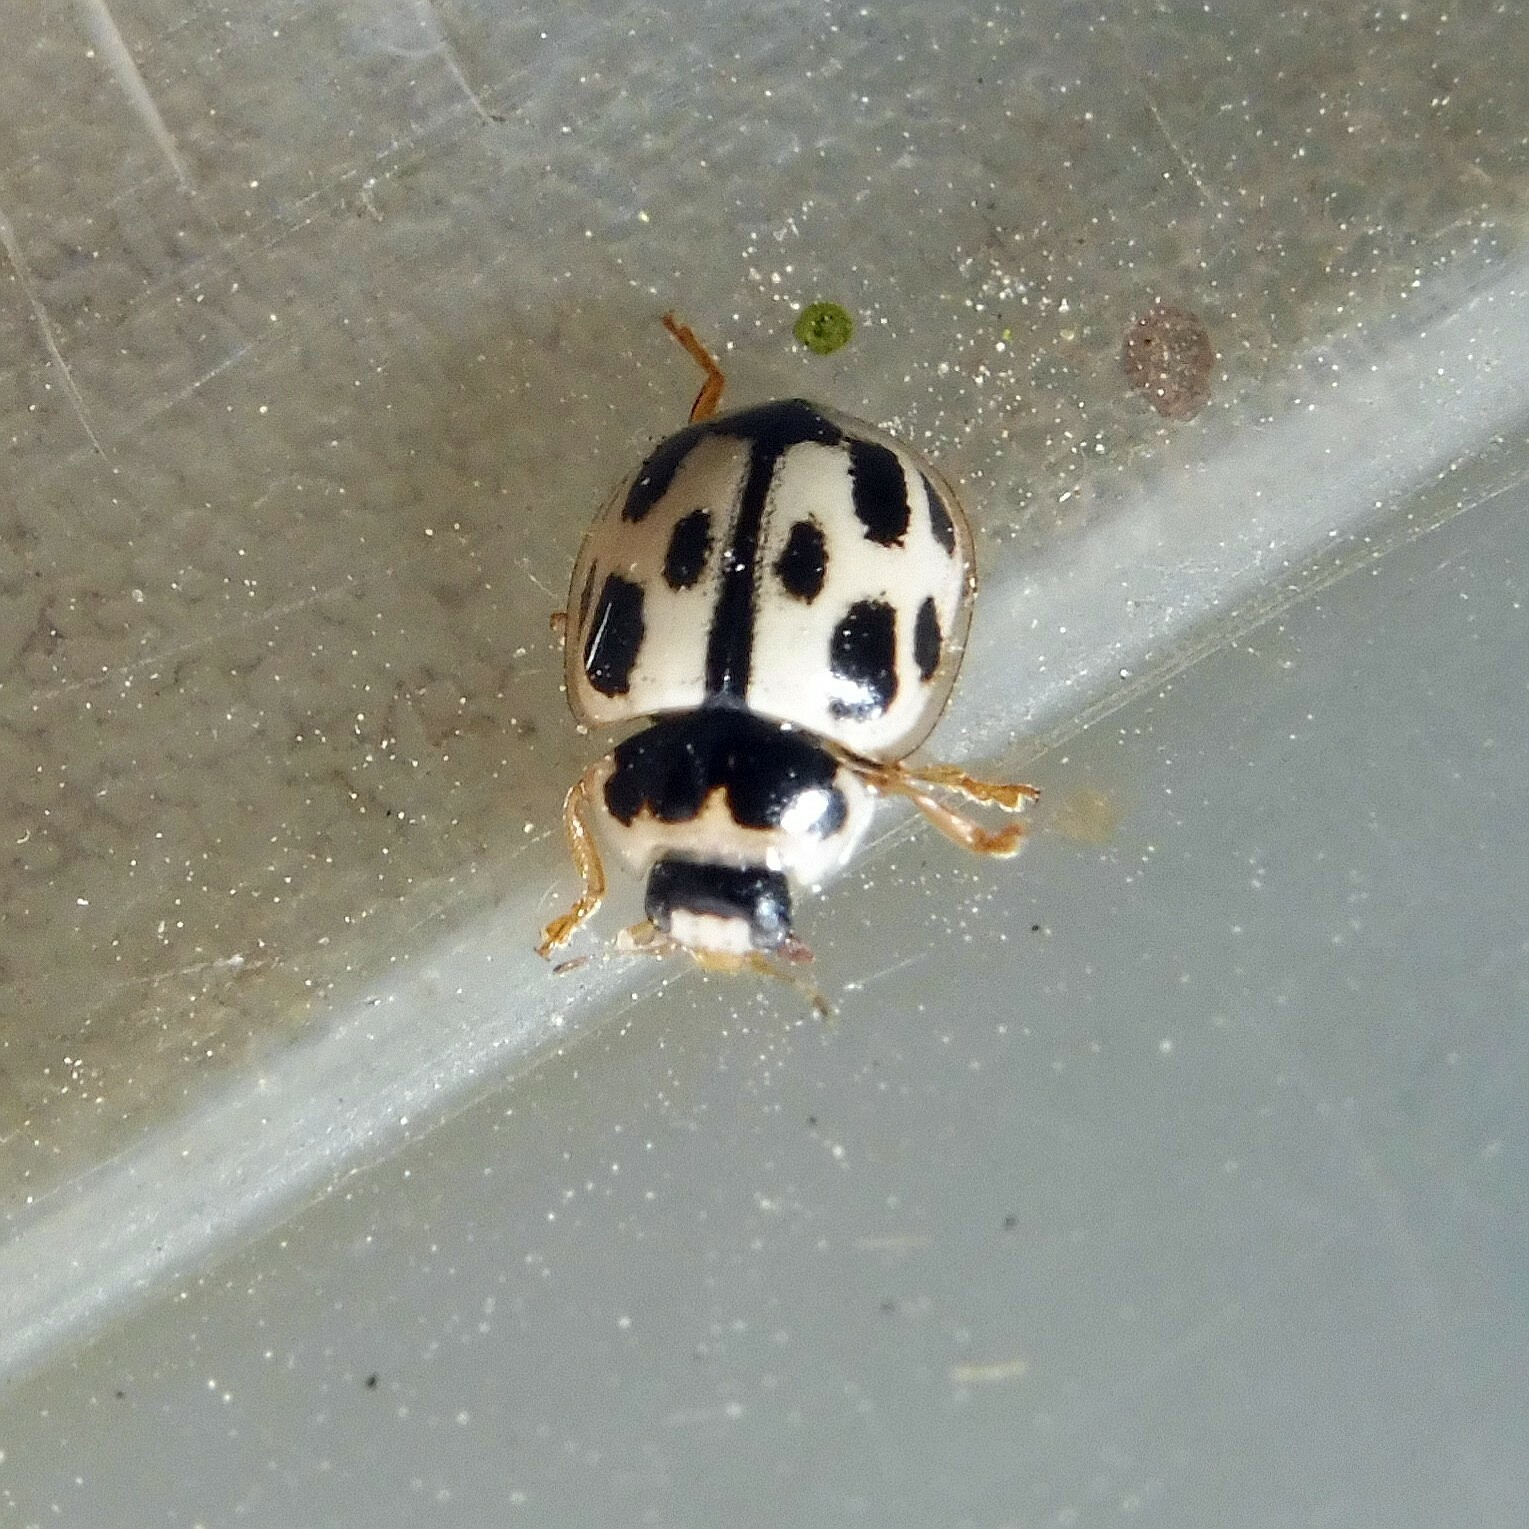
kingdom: Animalia
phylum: Arthropoda
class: Insecta
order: Coleoptera
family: Coccinellidae
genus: Propylaea
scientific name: Propylaea quatuordecimpunctata
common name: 14-spotted ladybird beetle
